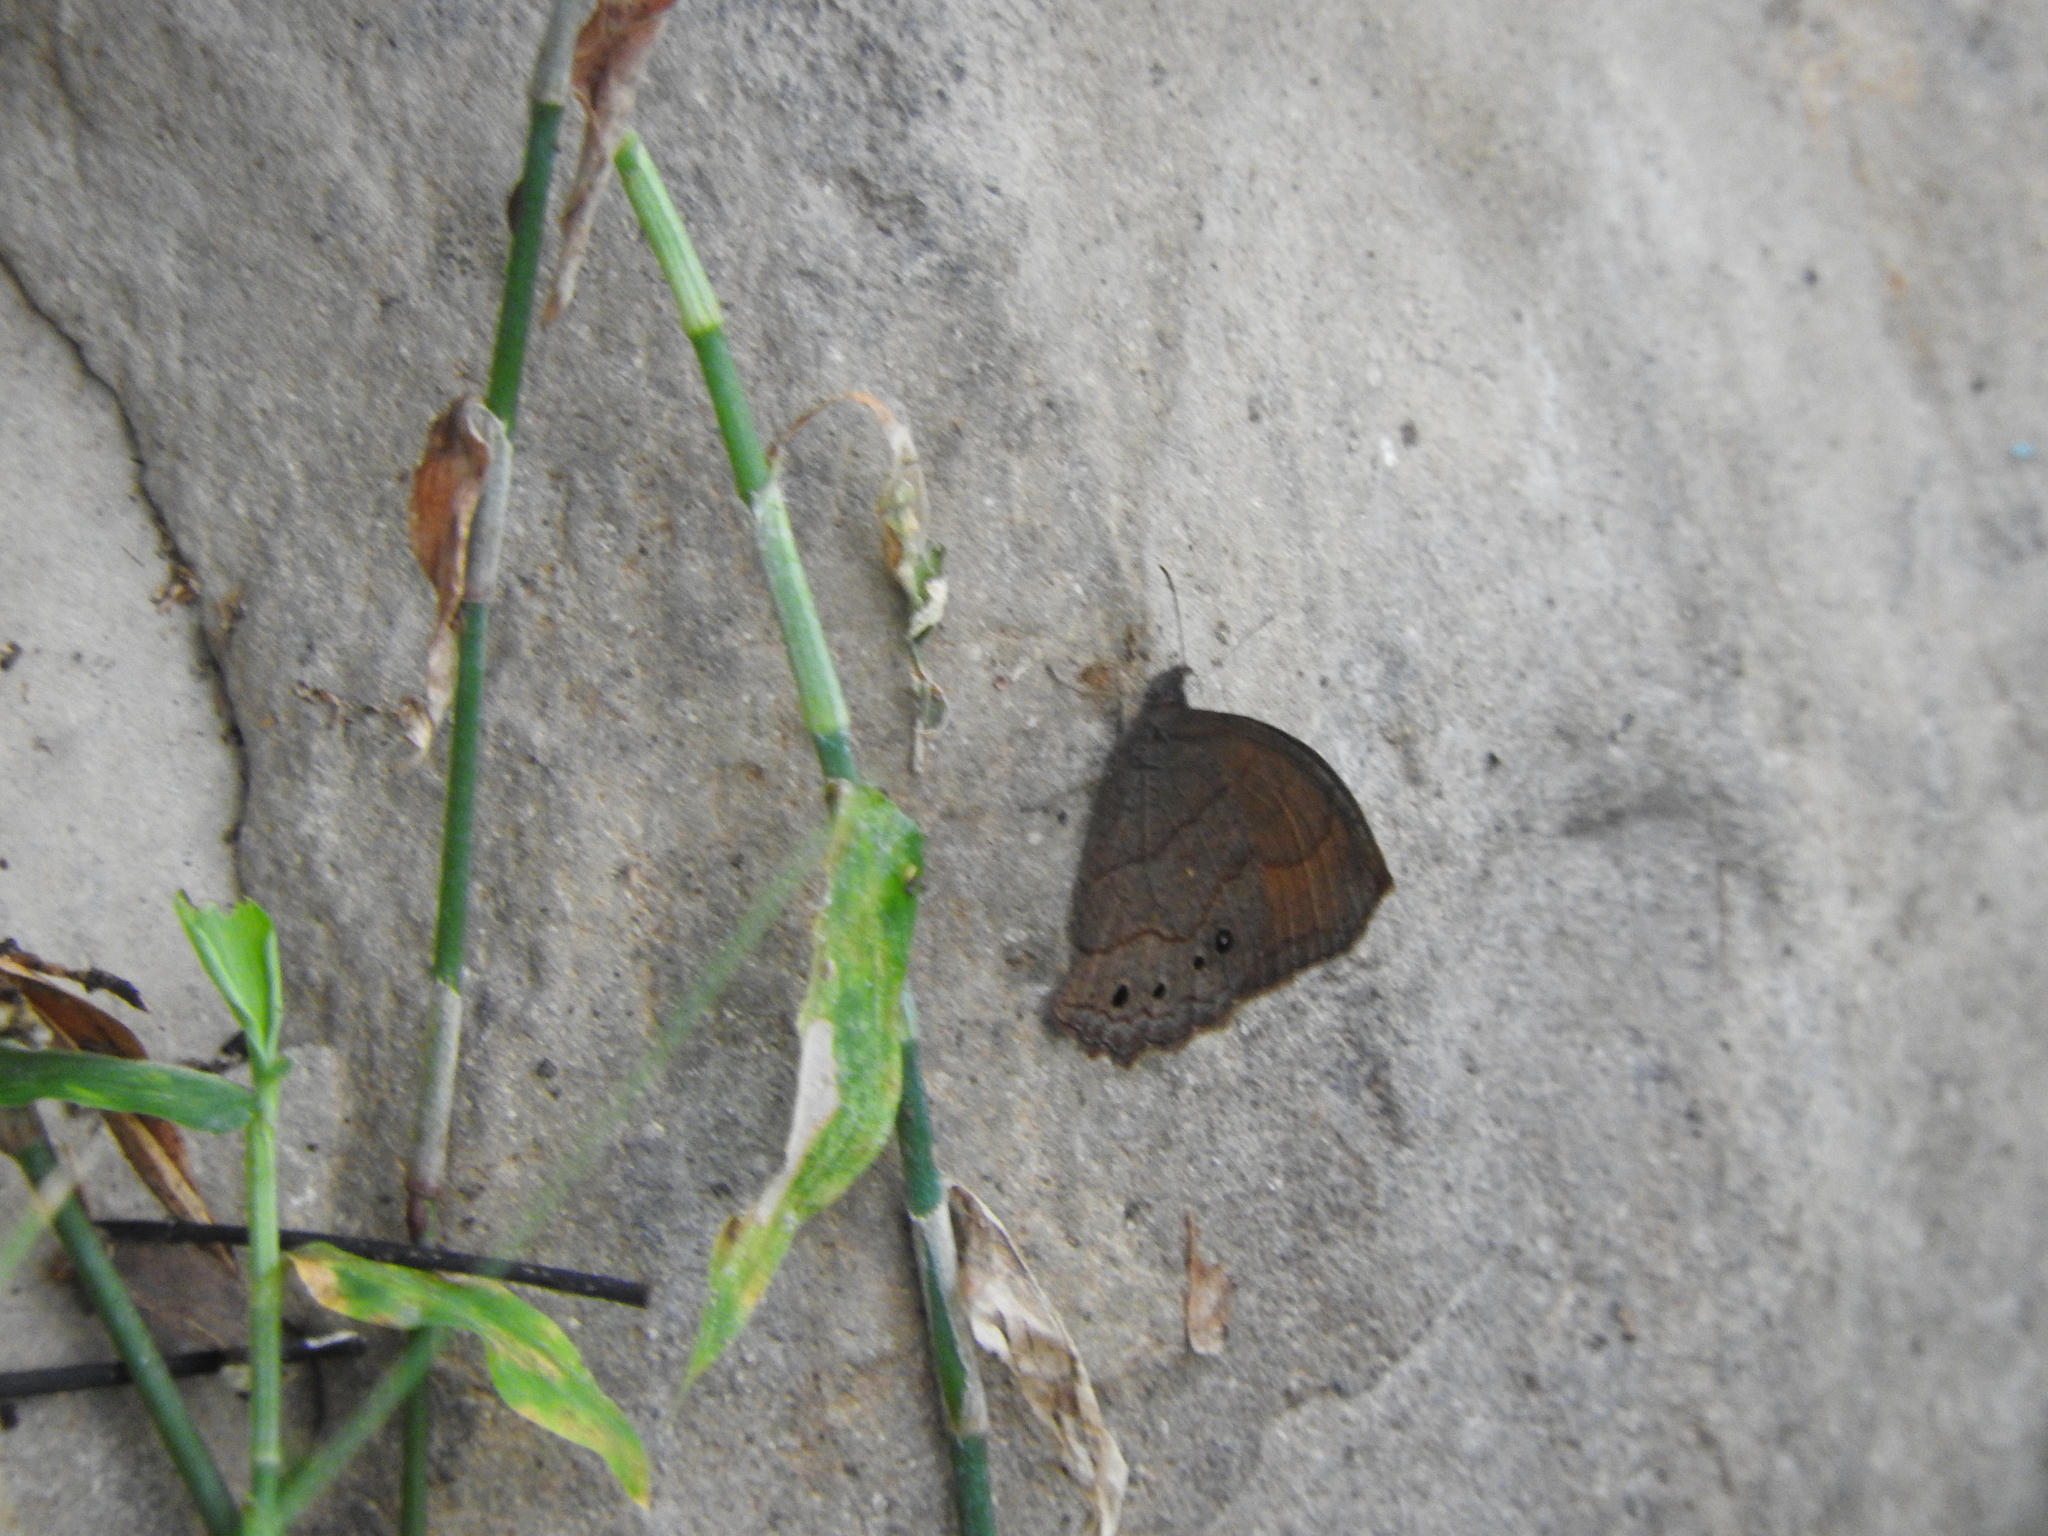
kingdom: Animalia
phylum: Arthropoda
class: Insecta
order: Lepidoptera
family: Nymphalidae
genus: Pindis
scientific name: Pindis squamistriga
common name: Variable satyr
